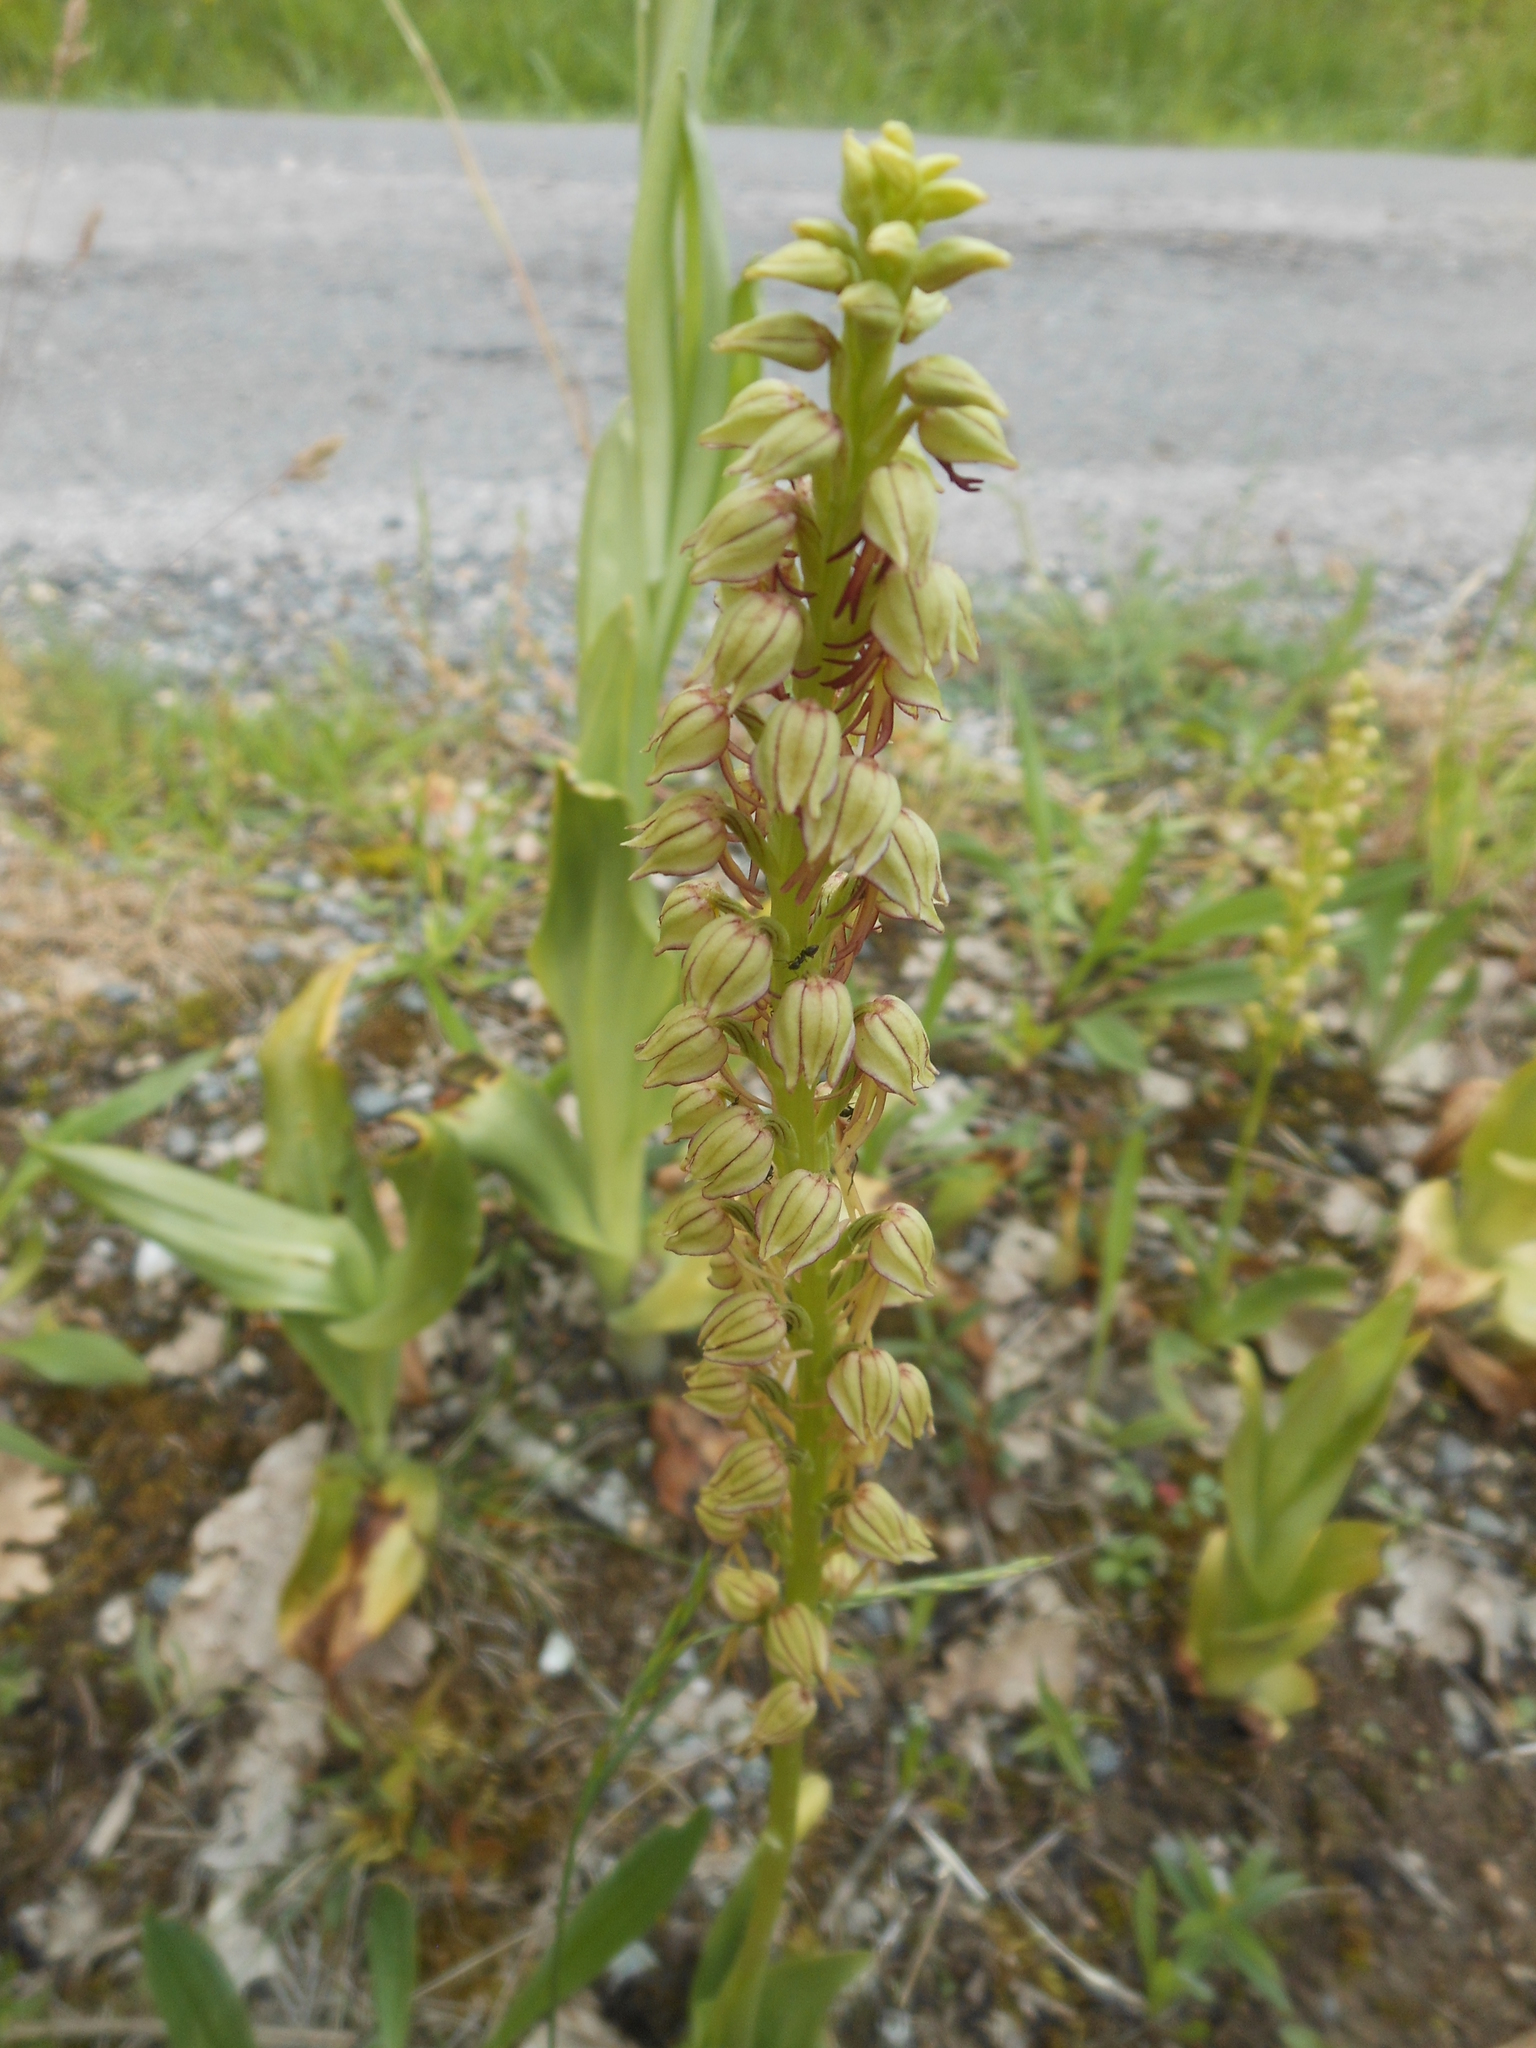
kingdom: Plantae
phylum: Tracheophyta
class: Liliopsida
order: Asparagales
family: Orchidaceae
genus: Orchis
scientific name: Orchis anthropophora
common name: Man orchid
